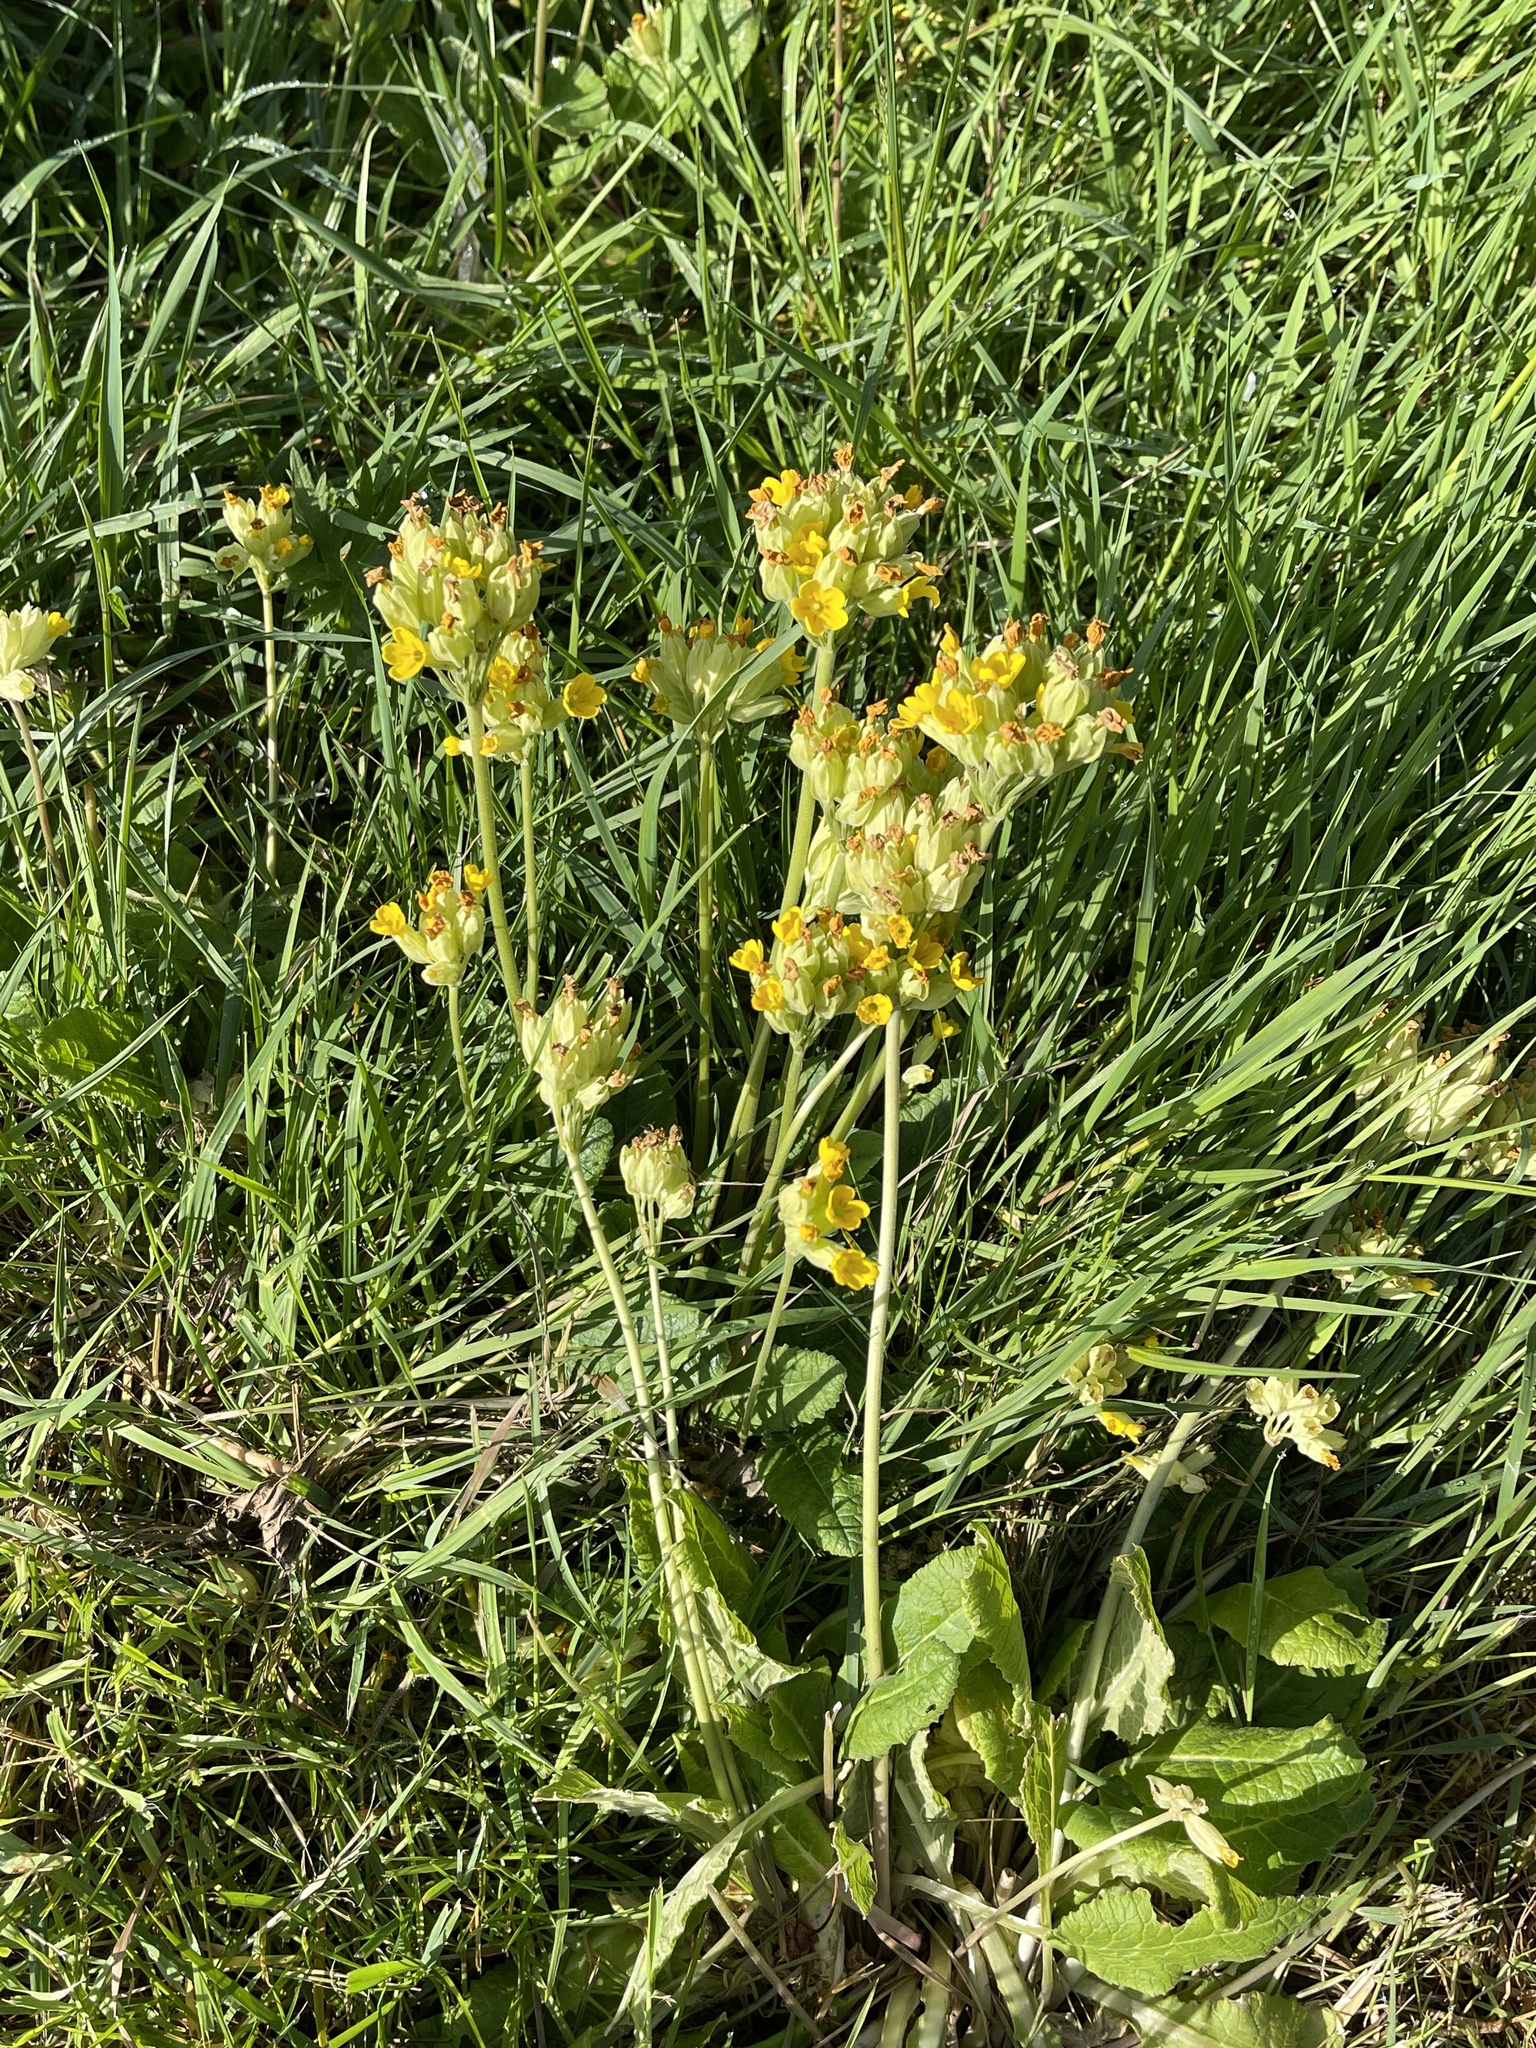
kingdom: Plantae
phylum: Tracheophyta
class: Magnoliopsida
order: Ericales
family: Primulaceae
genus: Primula
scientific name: Primula veris
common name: Cowslip
